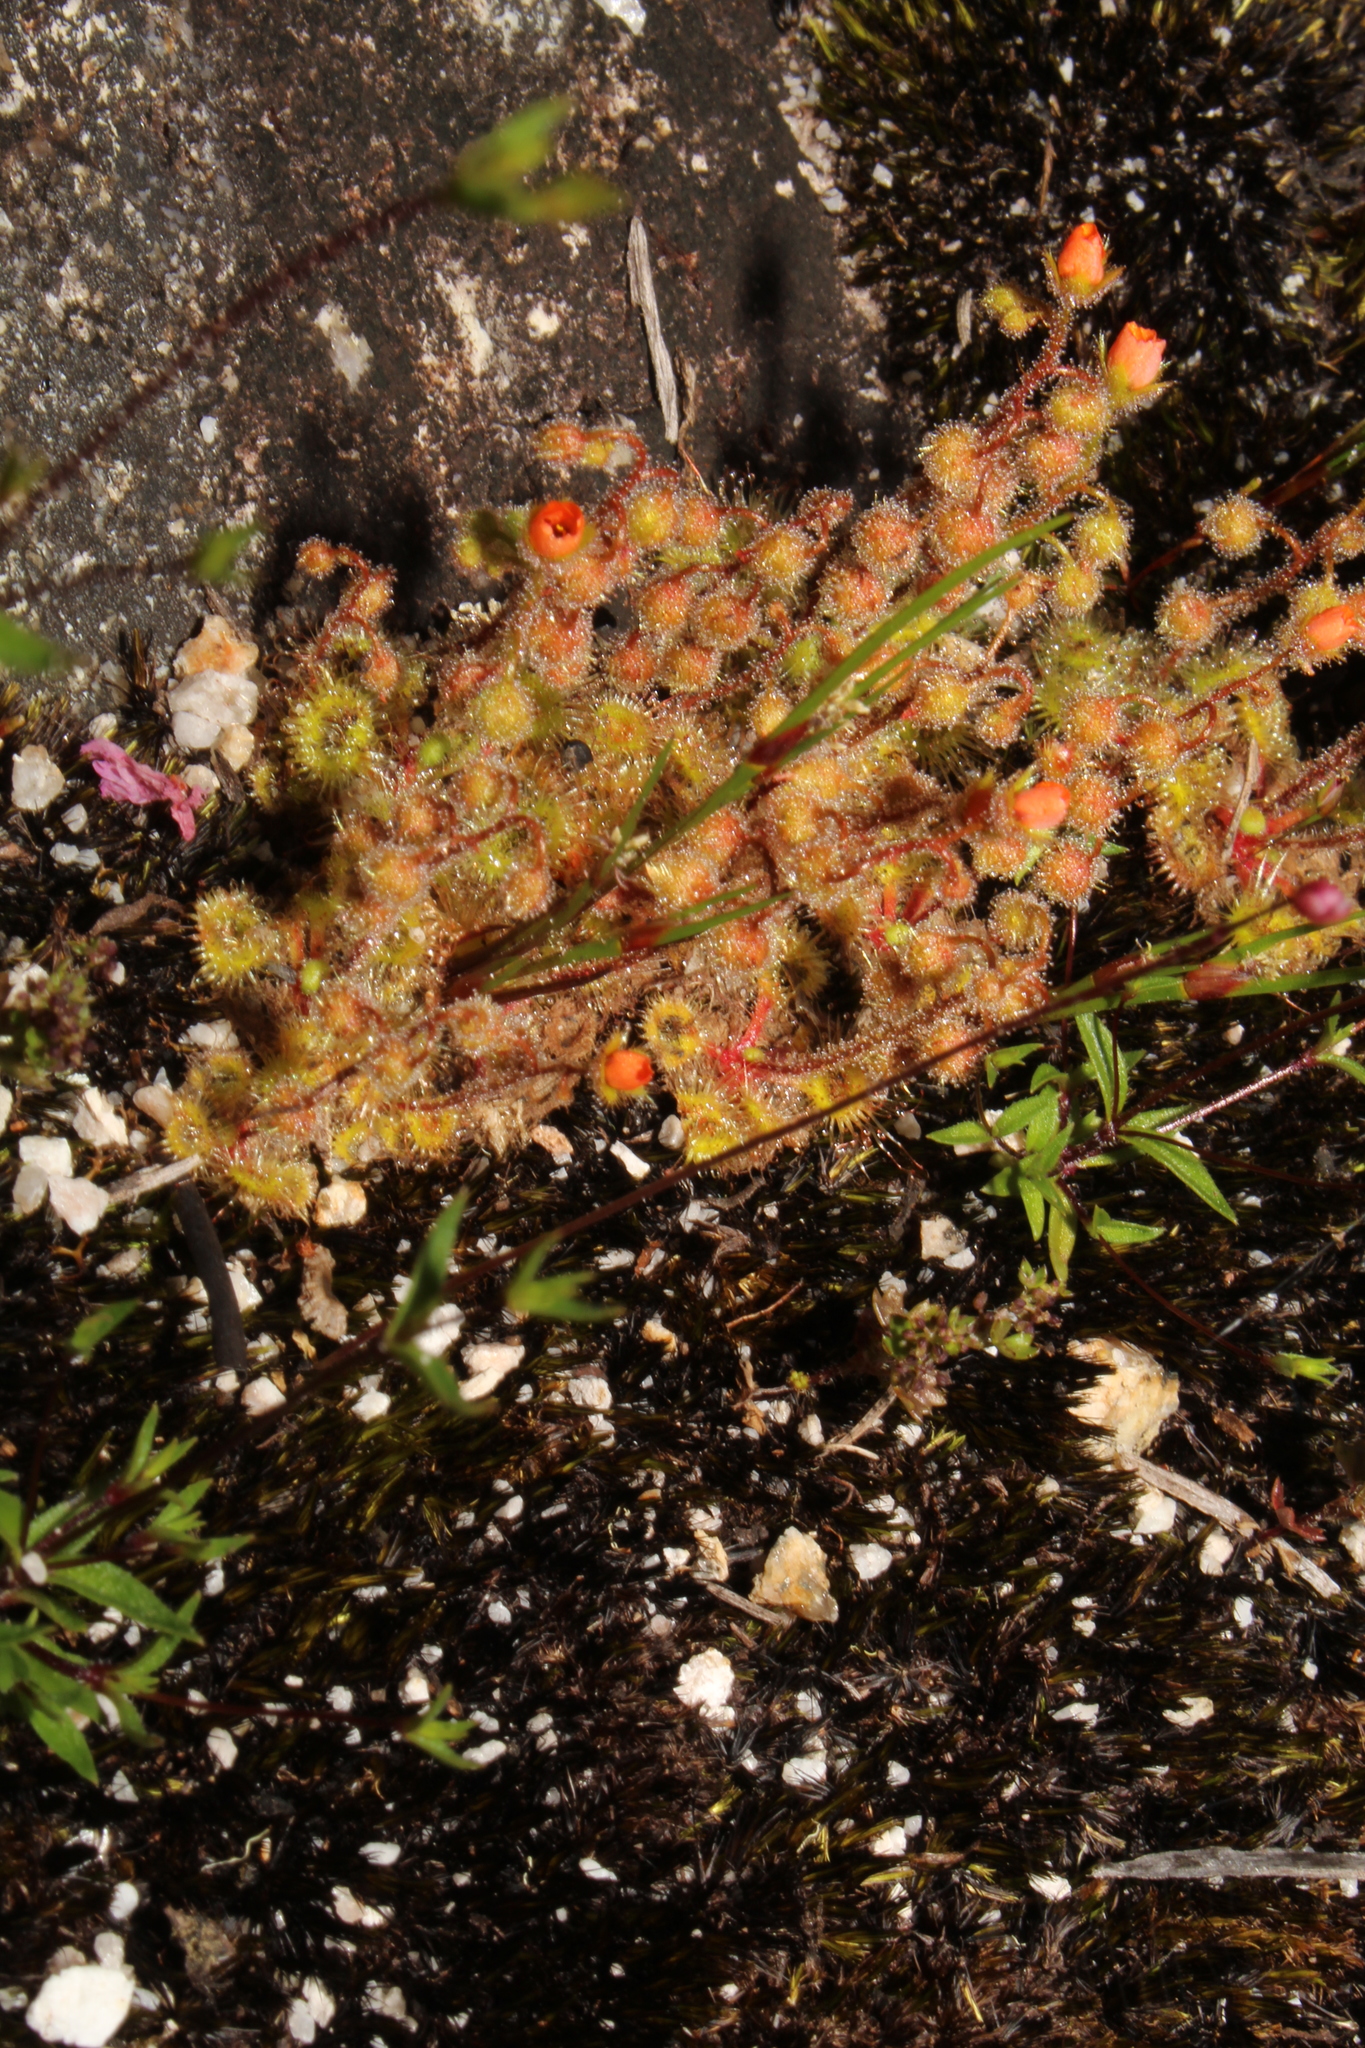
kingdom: Plantae
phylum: Tracheophyta
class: Magnoliopsida
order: Caryophyllales
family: Droseraceae
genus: Drosera
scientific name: Drosera glanduligera
